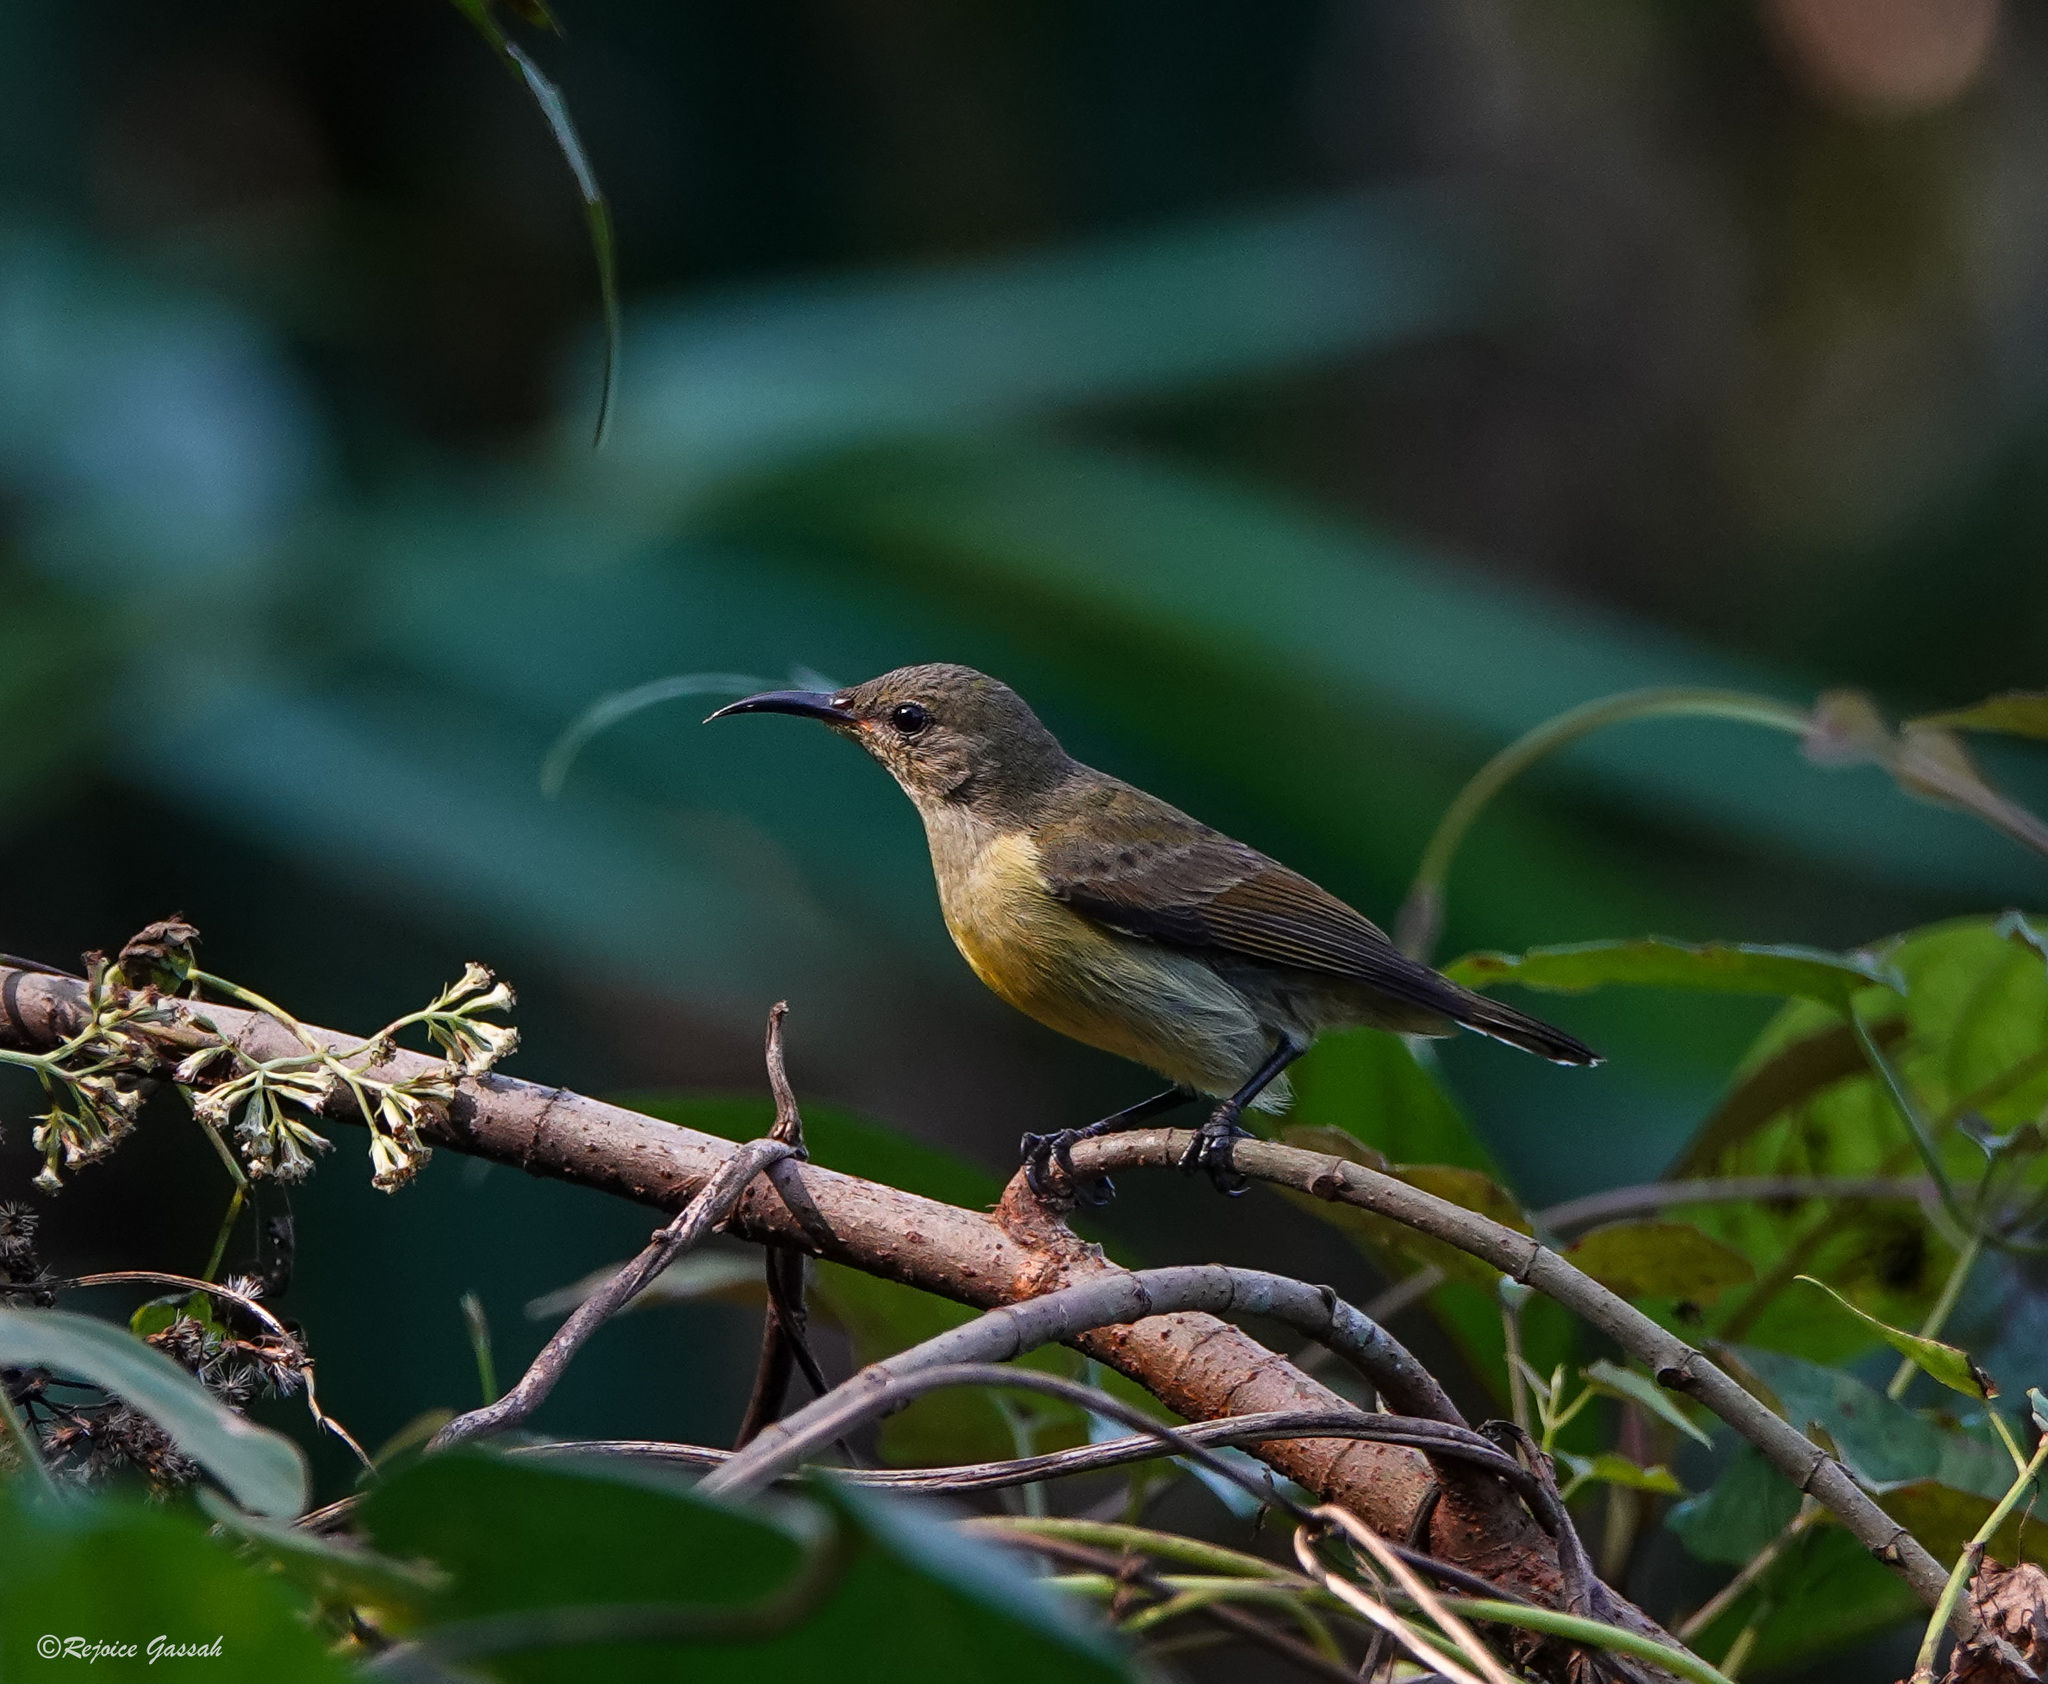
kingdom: Animalia
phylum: Chordata
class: Aves
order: Passeriformes
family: Nectariniidae
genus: Leptocoma
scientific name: Leptocoma brasiliana
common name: Van hasselt's sunbird
